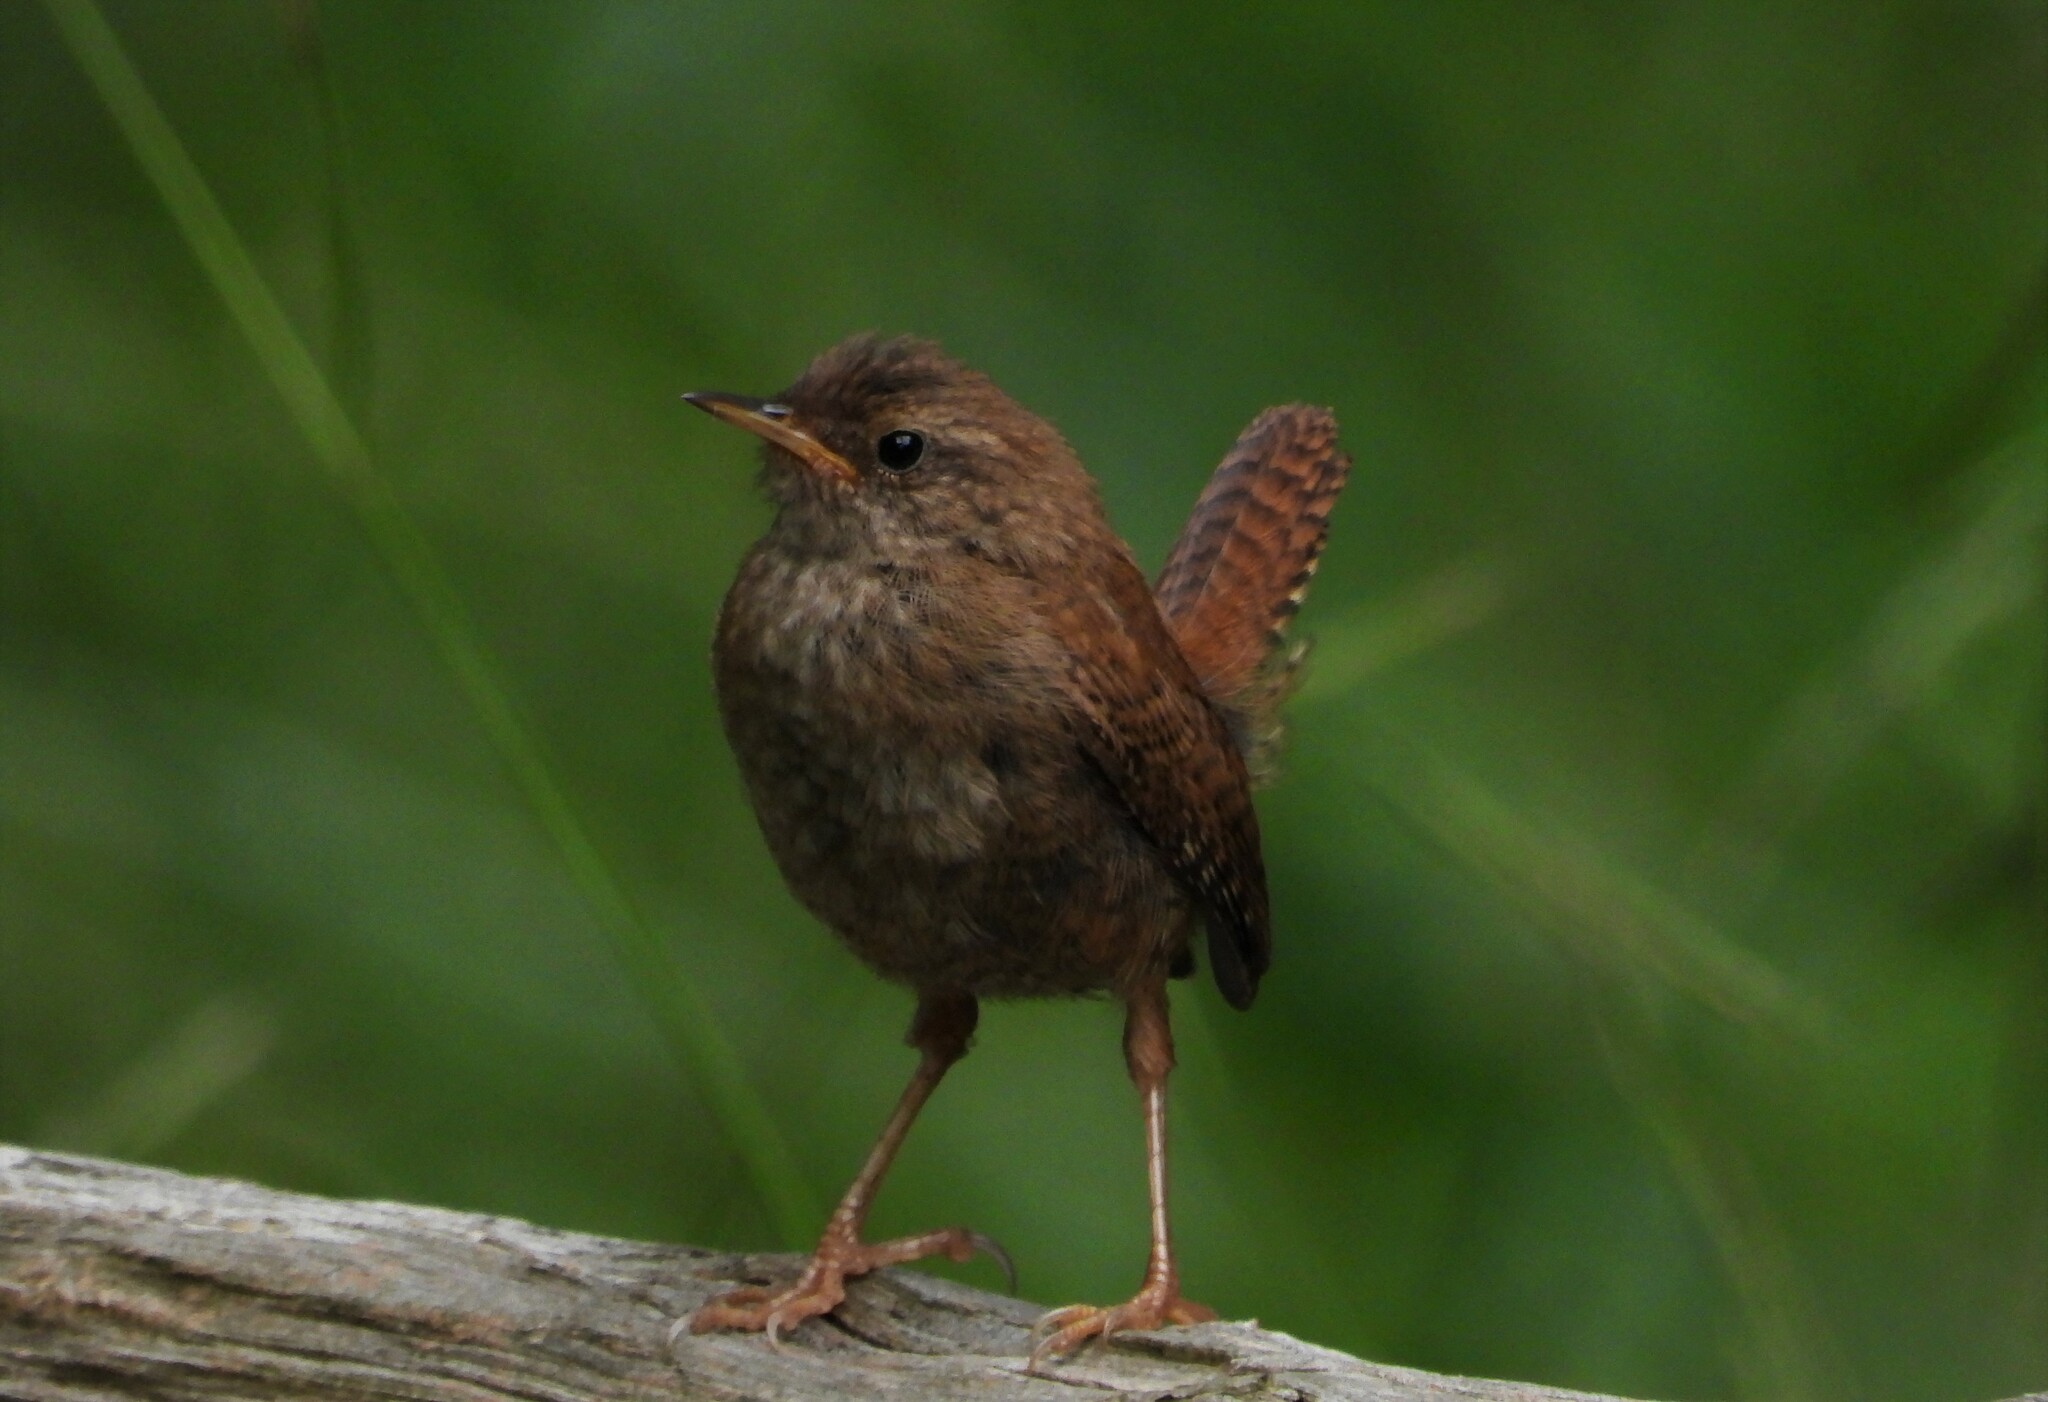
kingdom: Animalia
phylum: Chordata
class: Aves
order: Passeriformes
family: Troglodytidae
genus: Troglodytes
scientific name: Troglodytes troglodytes
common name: Eurasian wren
